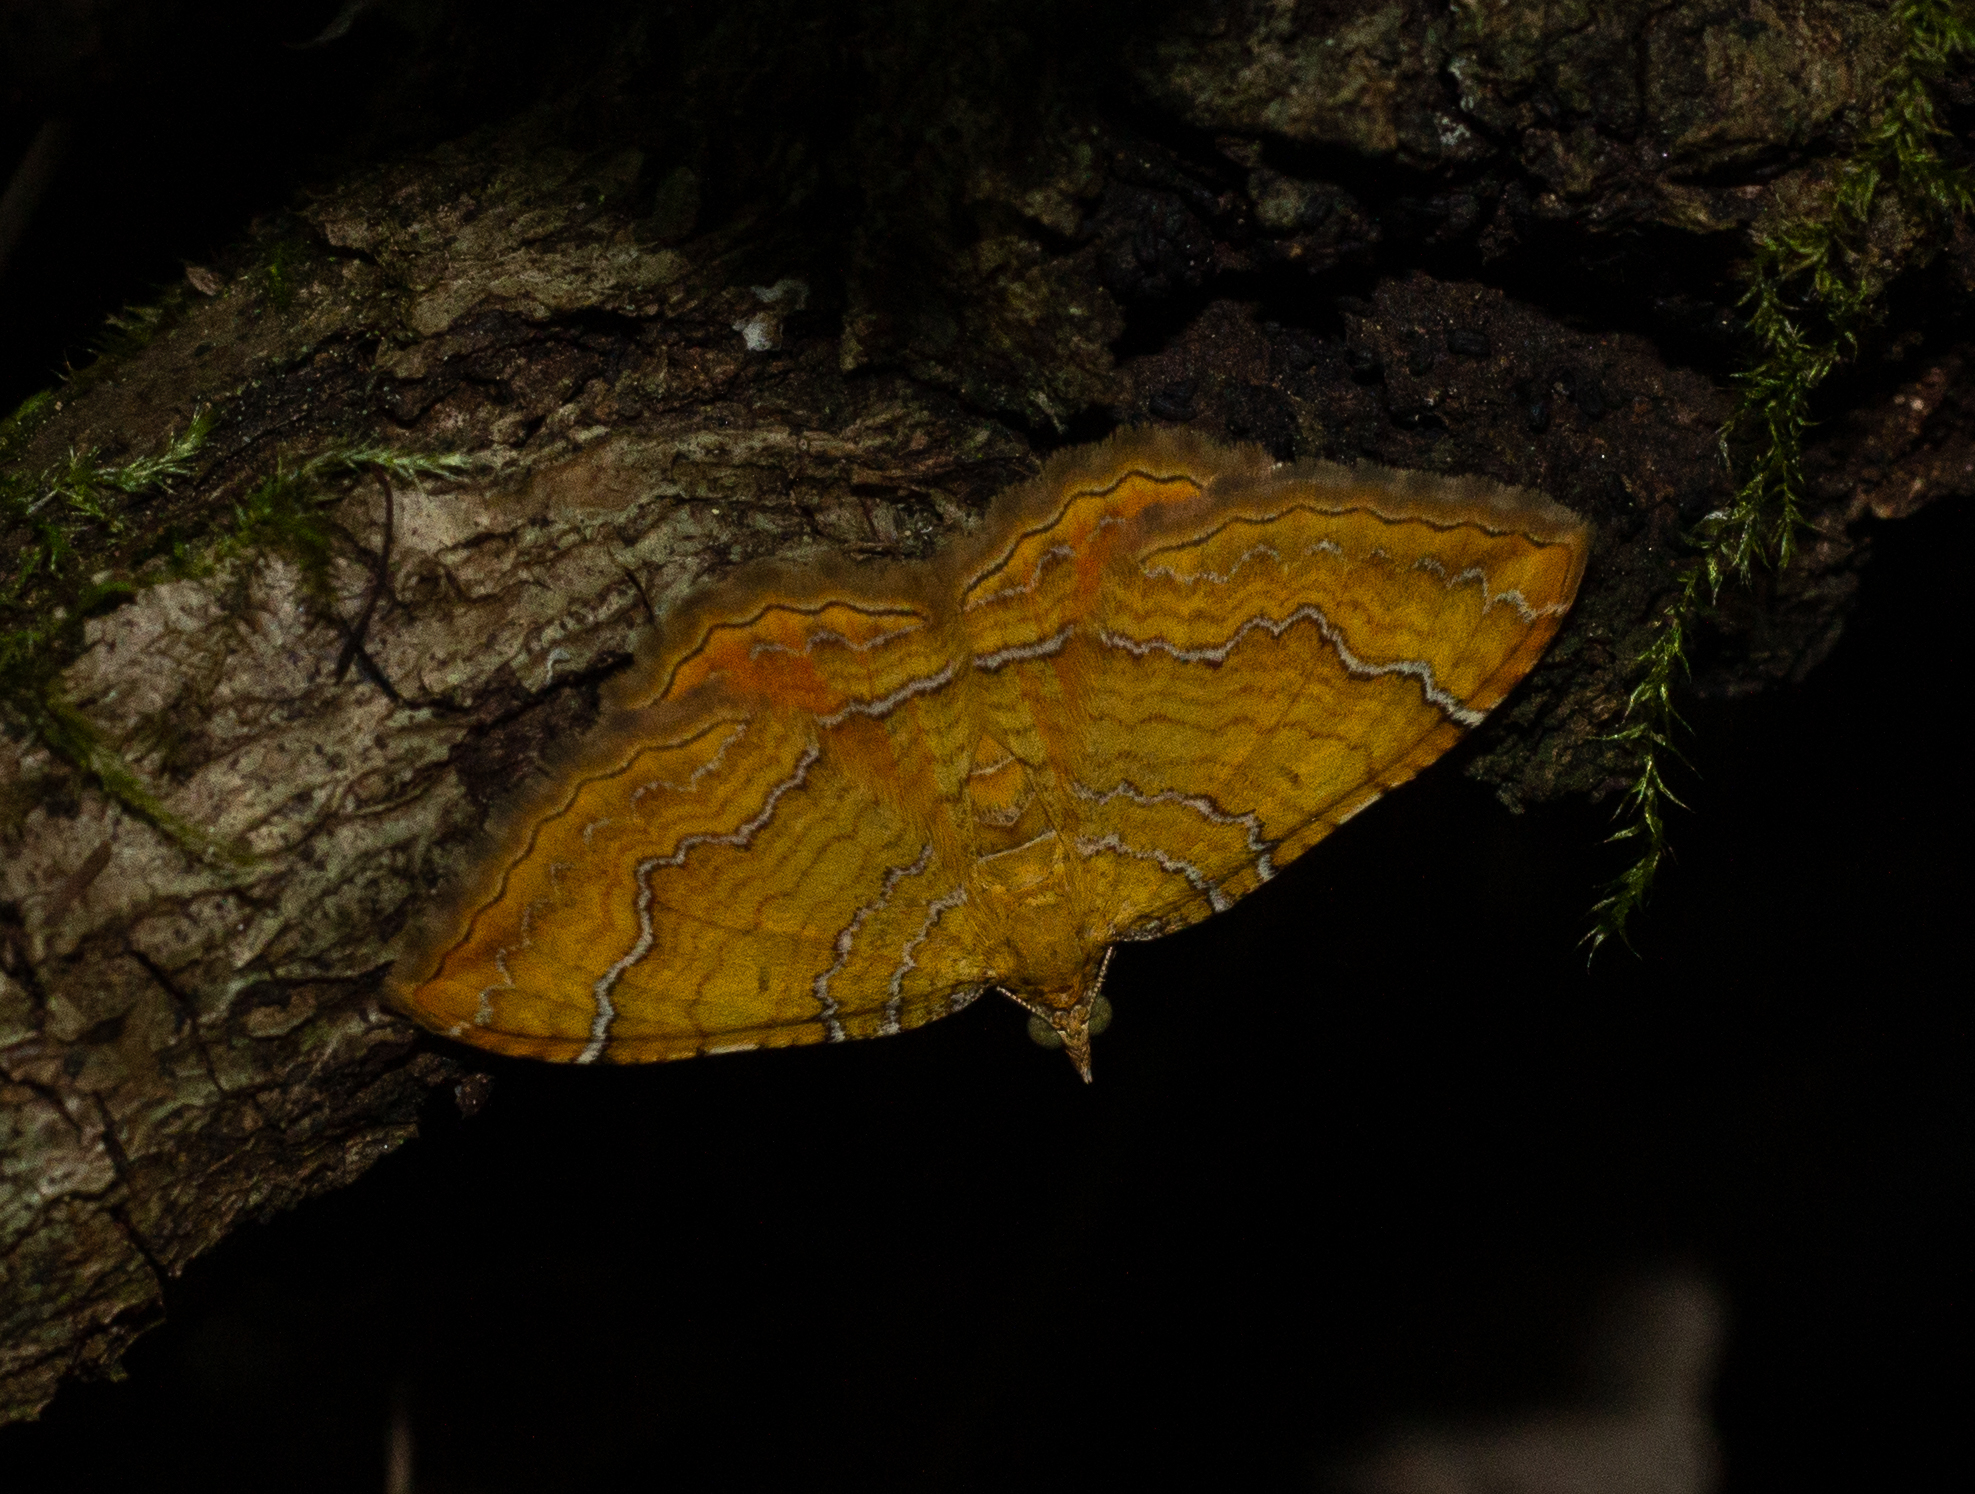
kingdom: Animalia
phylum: Arthropoda
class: Insecta
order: Lepidoptera
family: Geometridae
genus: Camptogramma
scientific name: Camptogramma bilineata
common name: Yellow shell
